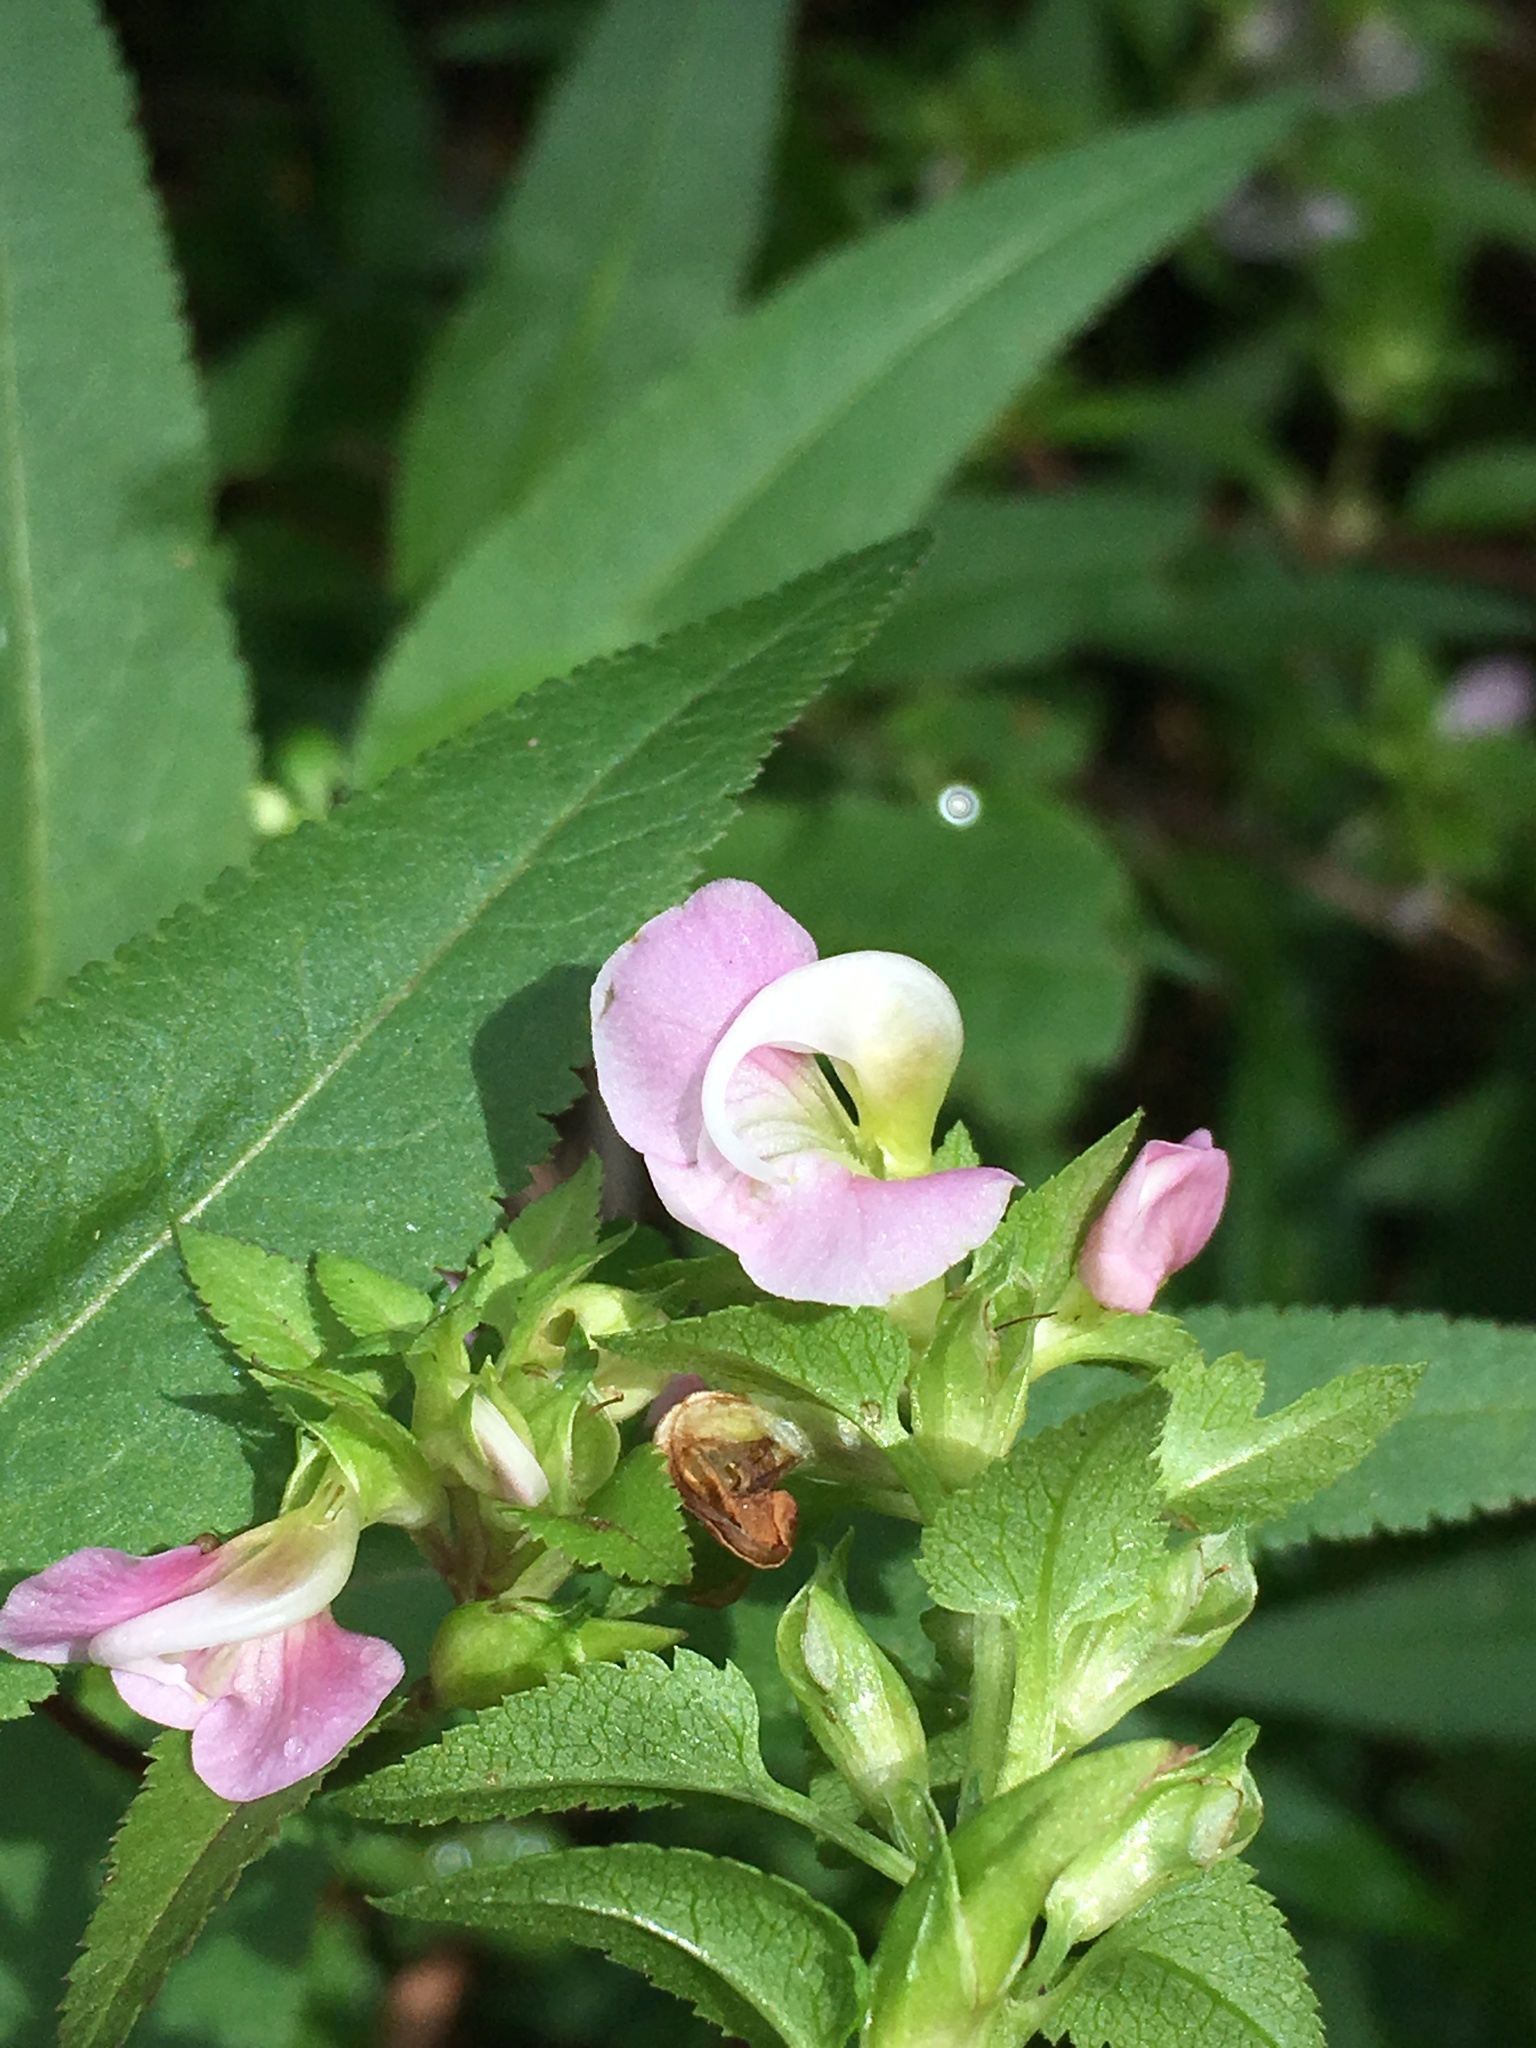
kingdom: Plantae
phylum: Tracheophyta
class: Magnoliopsida
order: Lamiales
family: Orobanchaceae
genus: Pedicularis
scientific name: Pedicularis racemosa
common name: Leafy lousewort
